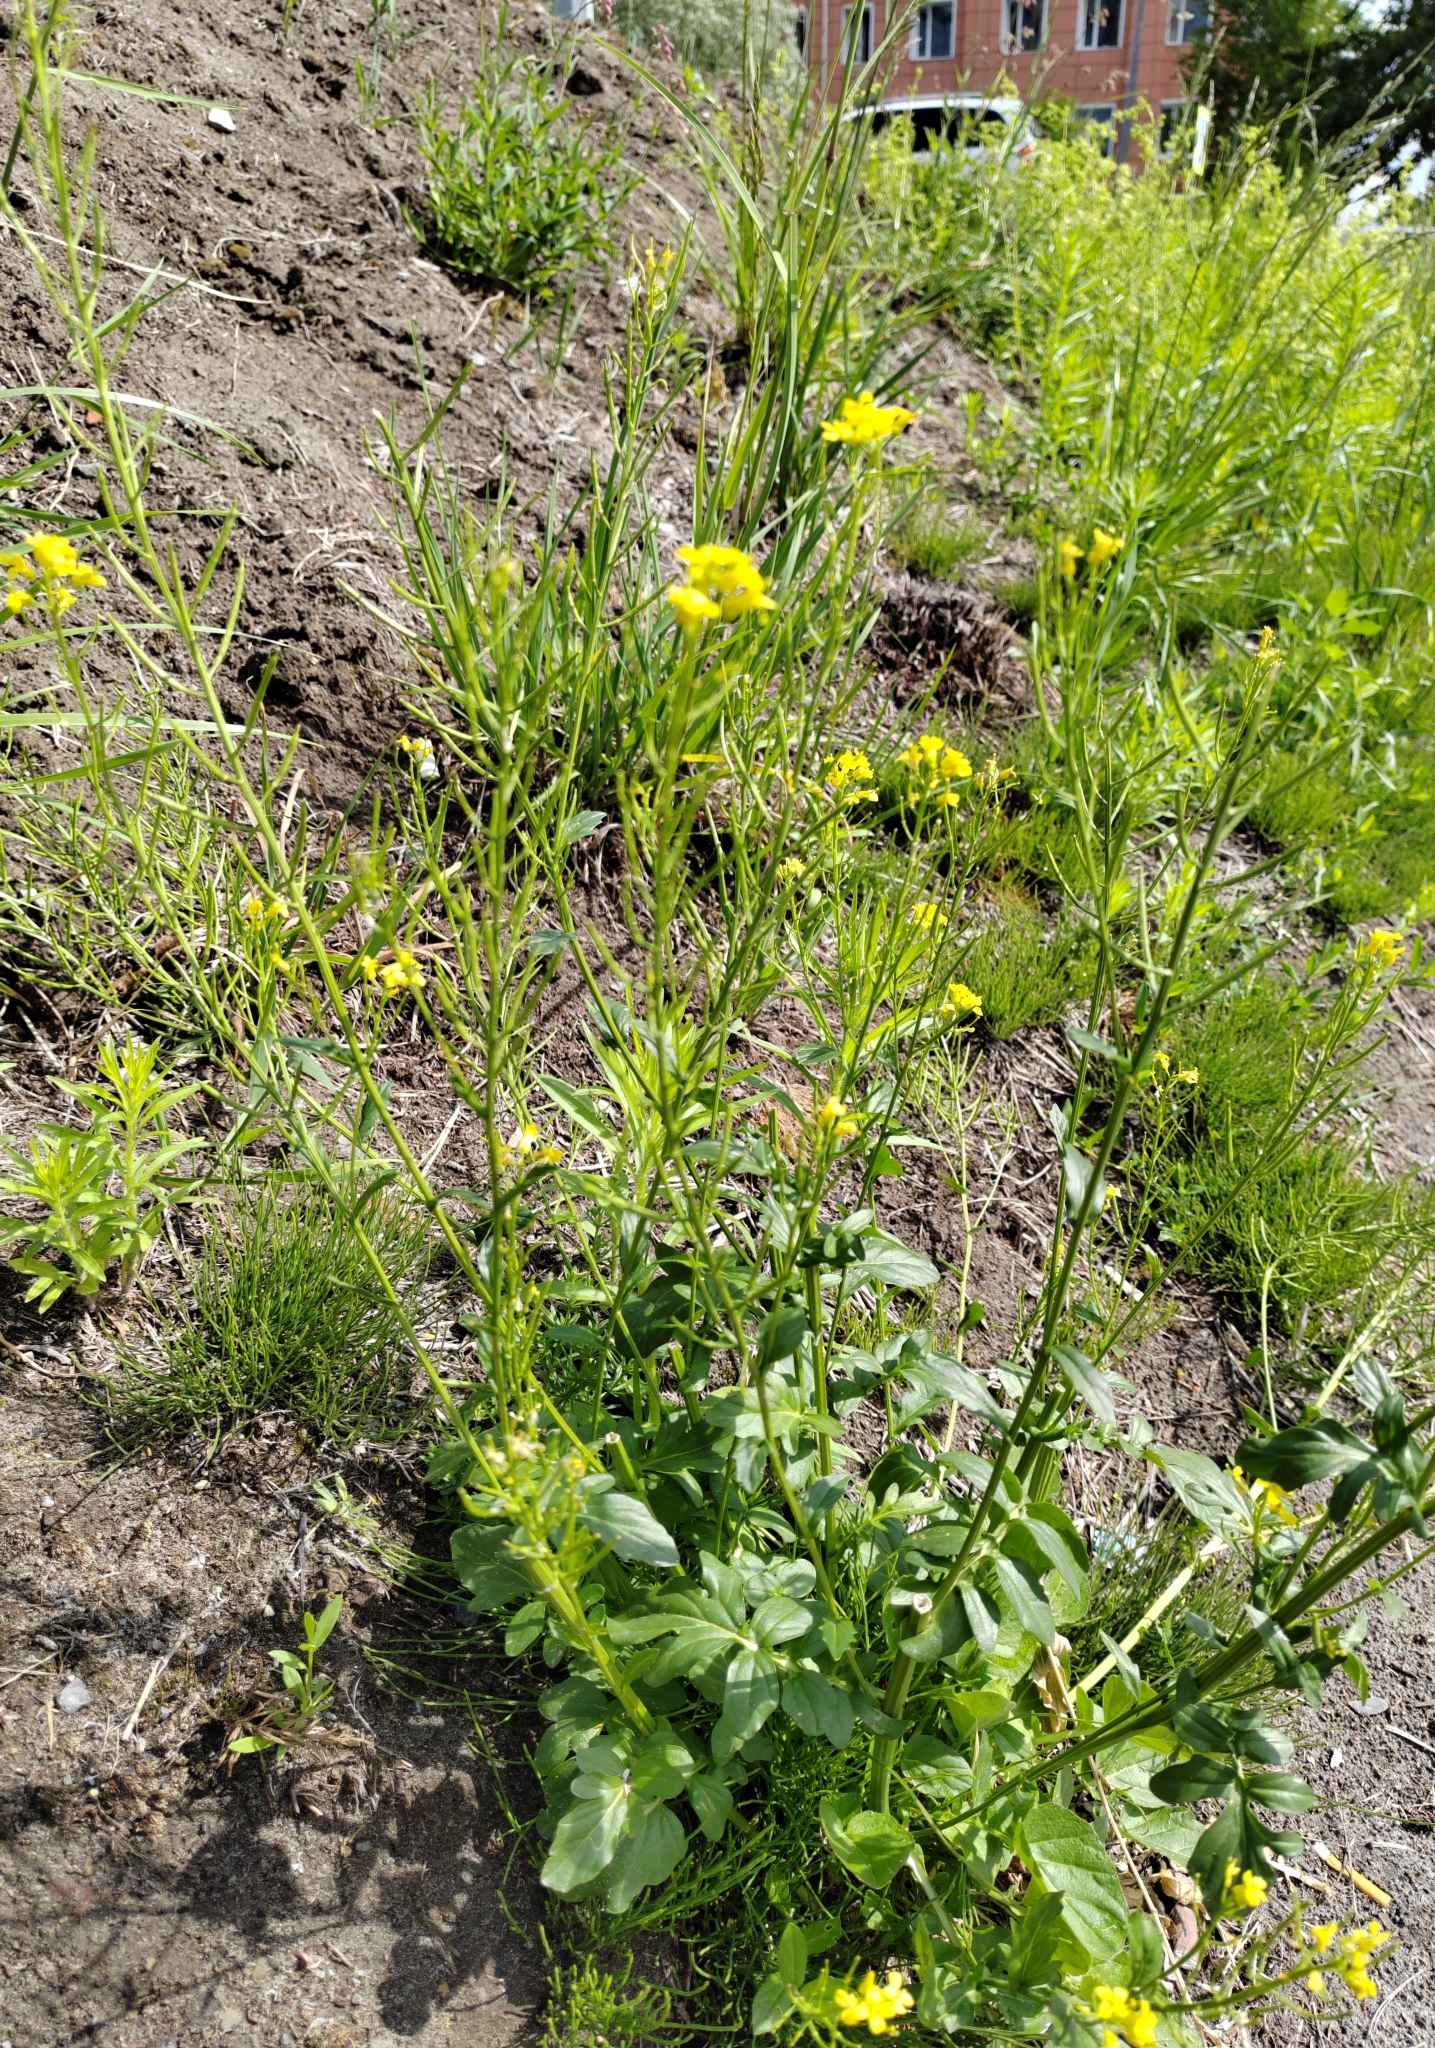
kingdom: Plantae
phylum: Tracheophyta
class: Magnoliopsida
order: Brassicales
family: Brassicaceae
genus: Barbarea
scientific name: Barbarea vulgaris
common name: Cressy-greens
